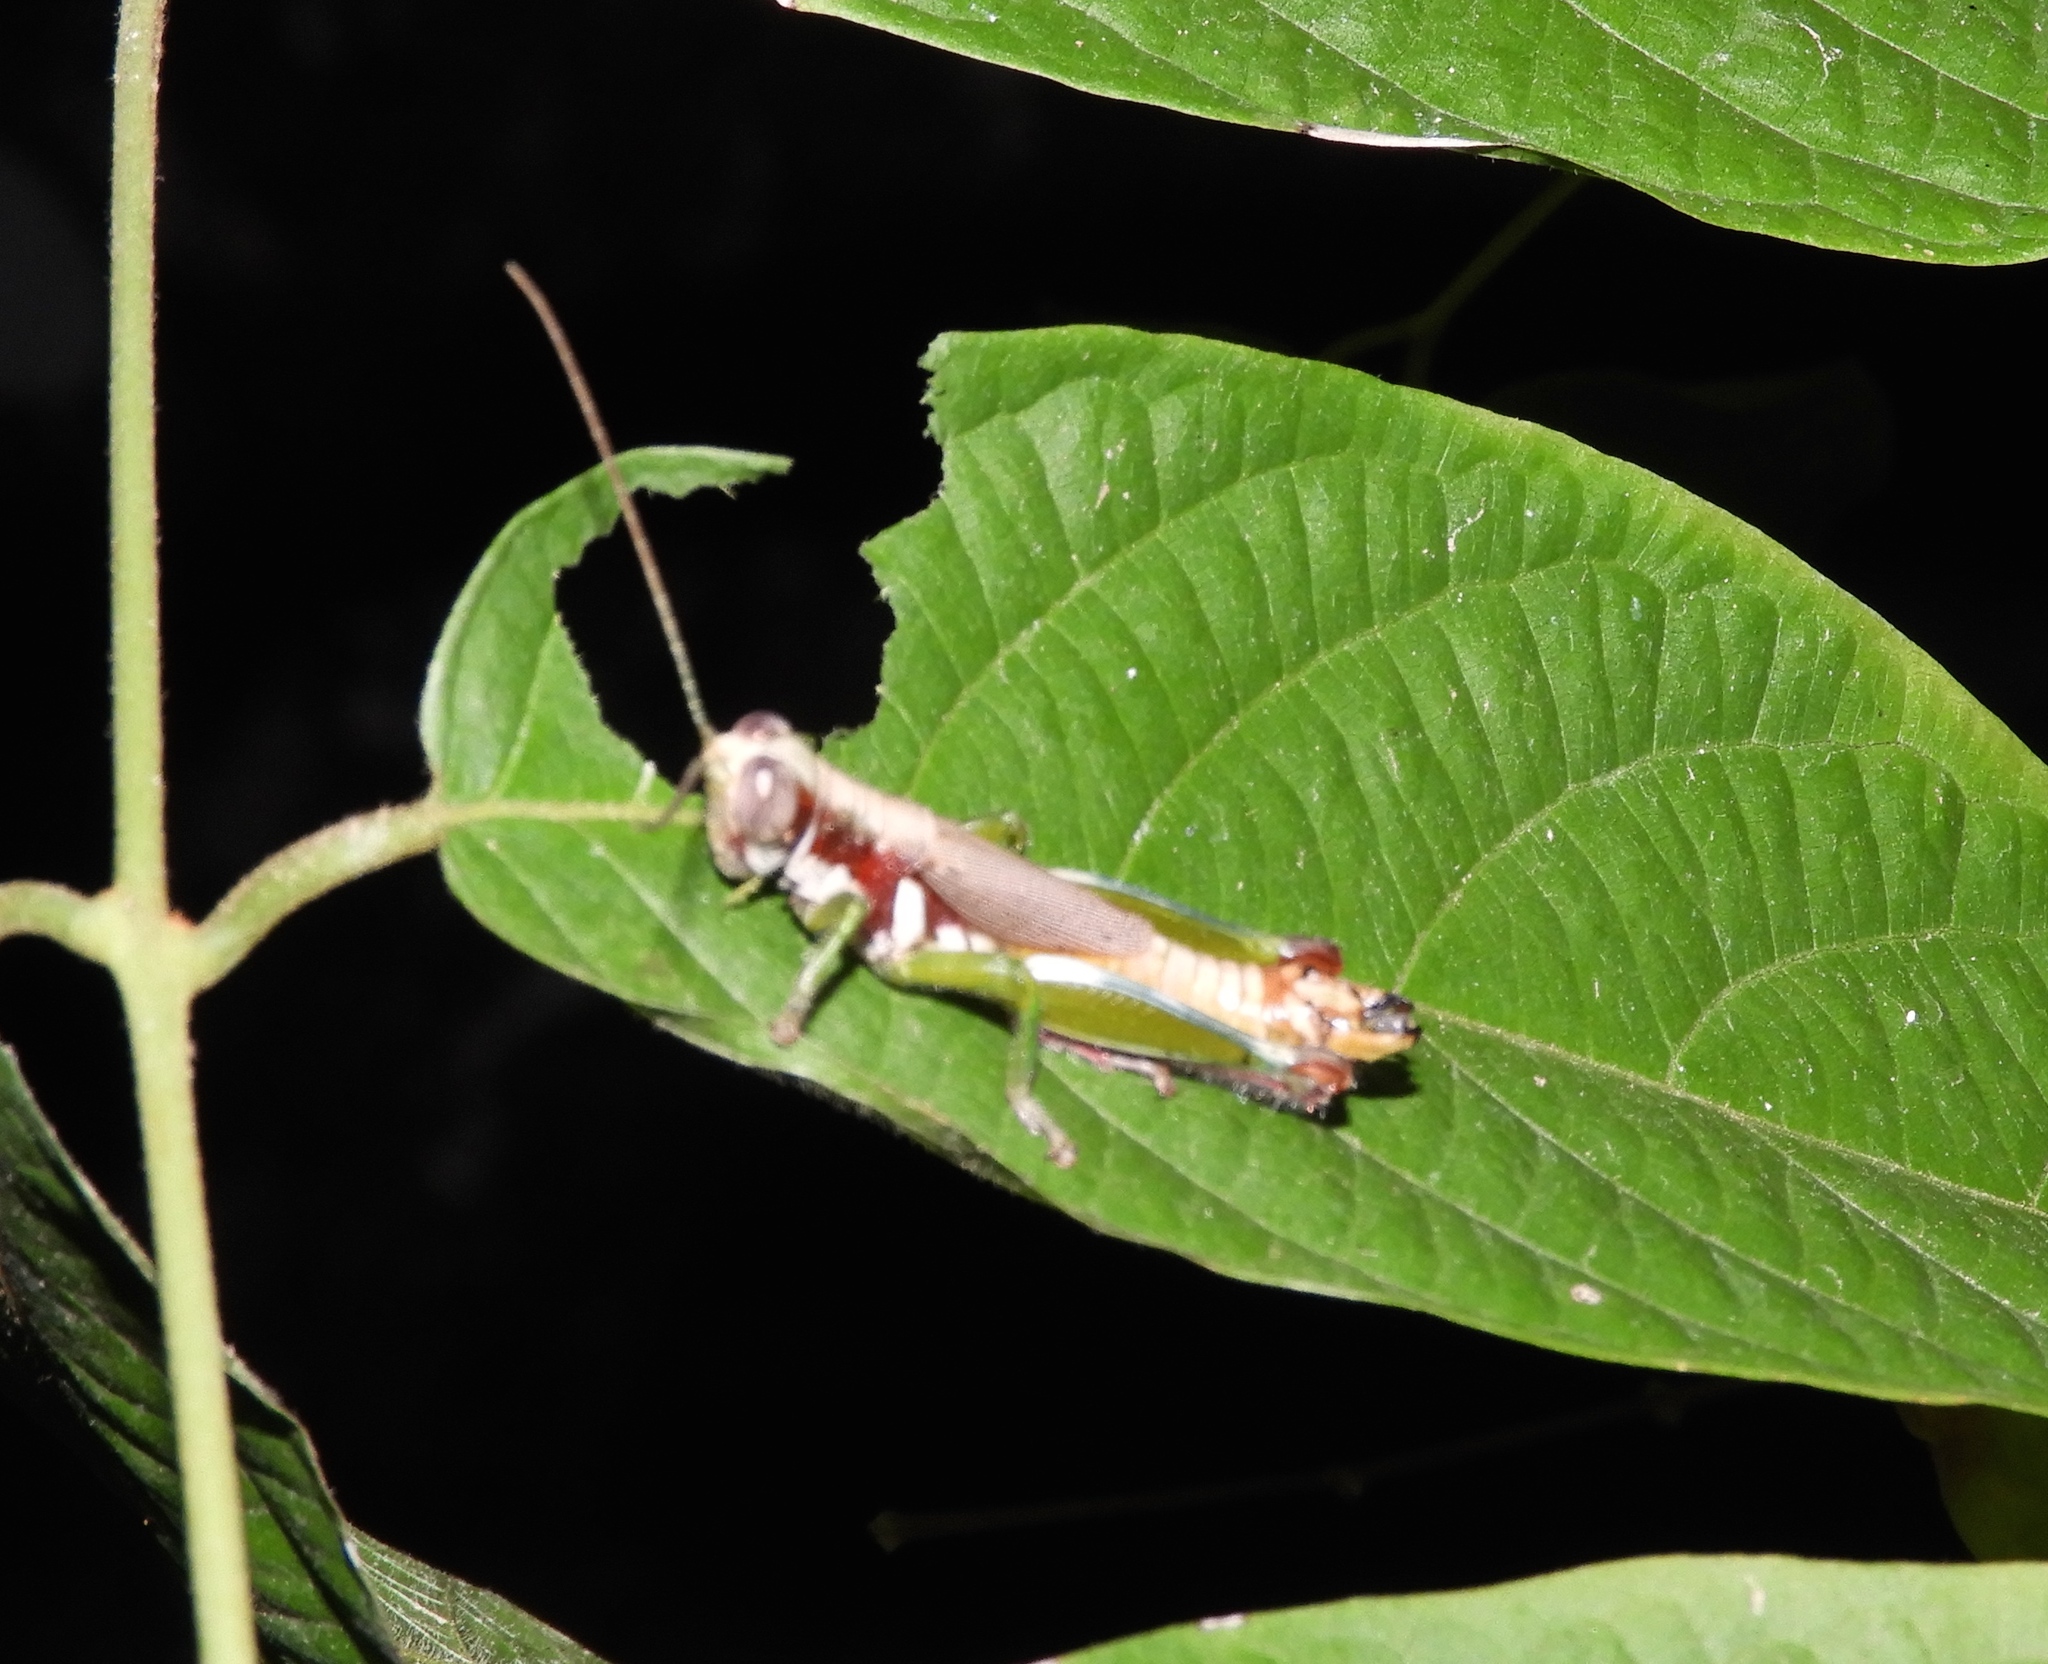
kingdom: Animalia
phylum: Arthropoda
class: Insecta
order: Orthoptera
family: Acrididae
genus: Proctolabus
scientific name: Proctolabus cerciatus
